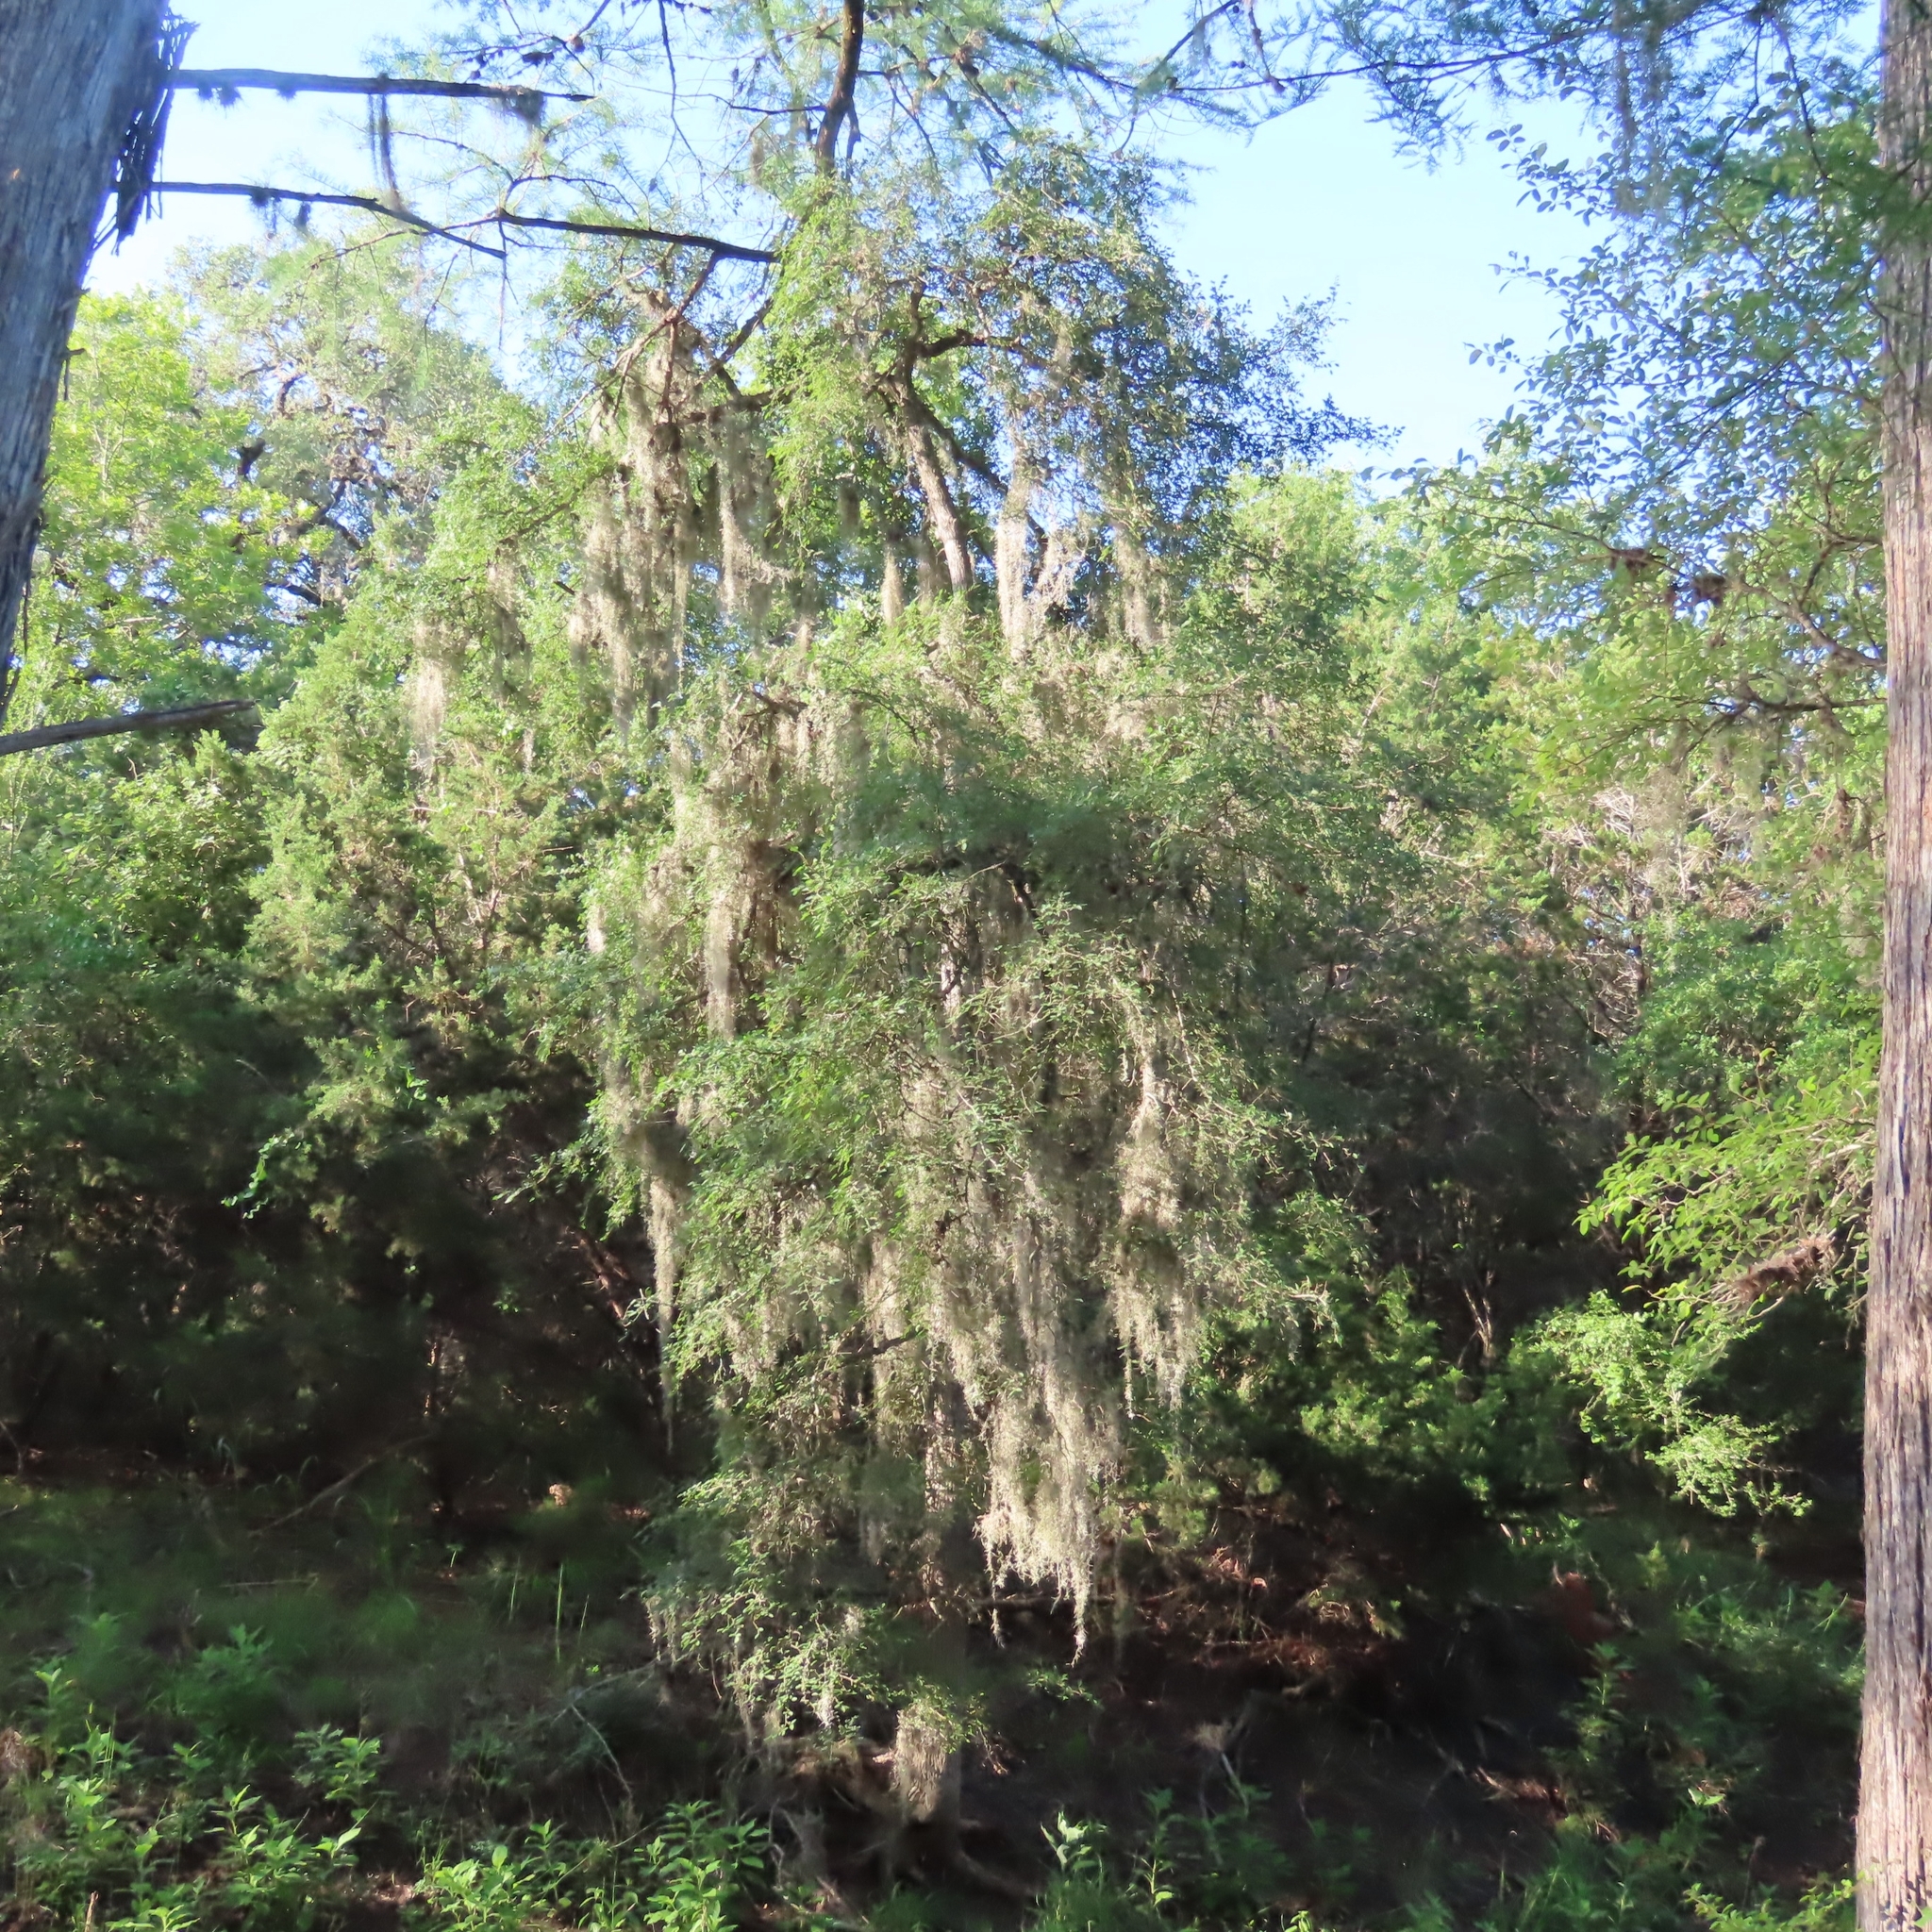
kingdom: Plantae
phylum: Tracheophyta
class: Liliopsida
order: Poales
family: Bromeliaceae
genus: Tillandsia
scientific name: Tillandsia usneoides
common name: Spanish moss
